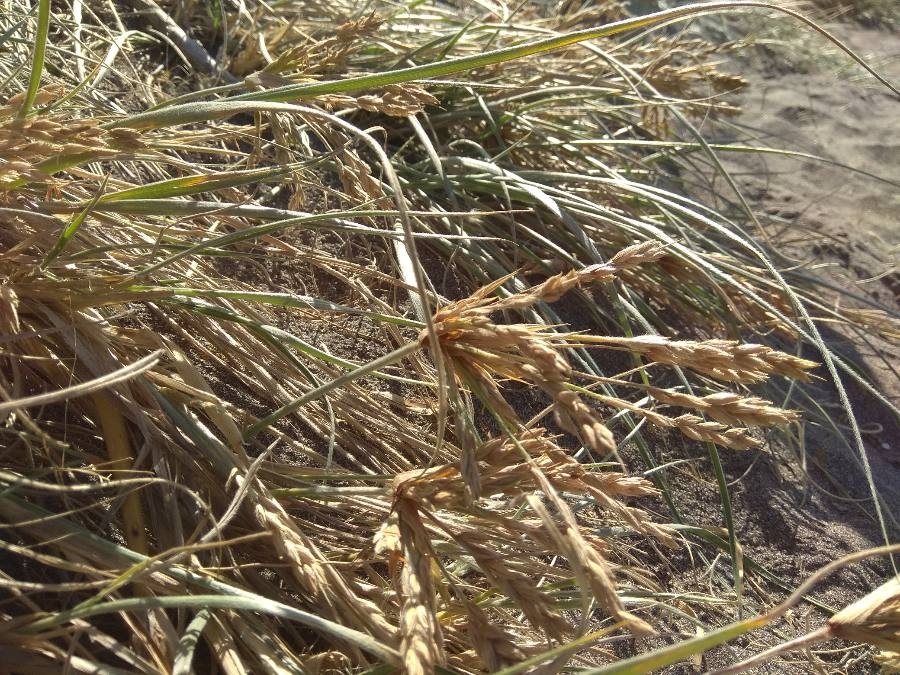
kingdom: Plantae
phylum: Tracheophyta
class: Liliopsida
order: Poales
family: Poaceae
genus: Spinifex
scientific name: Spinifex sericeus
